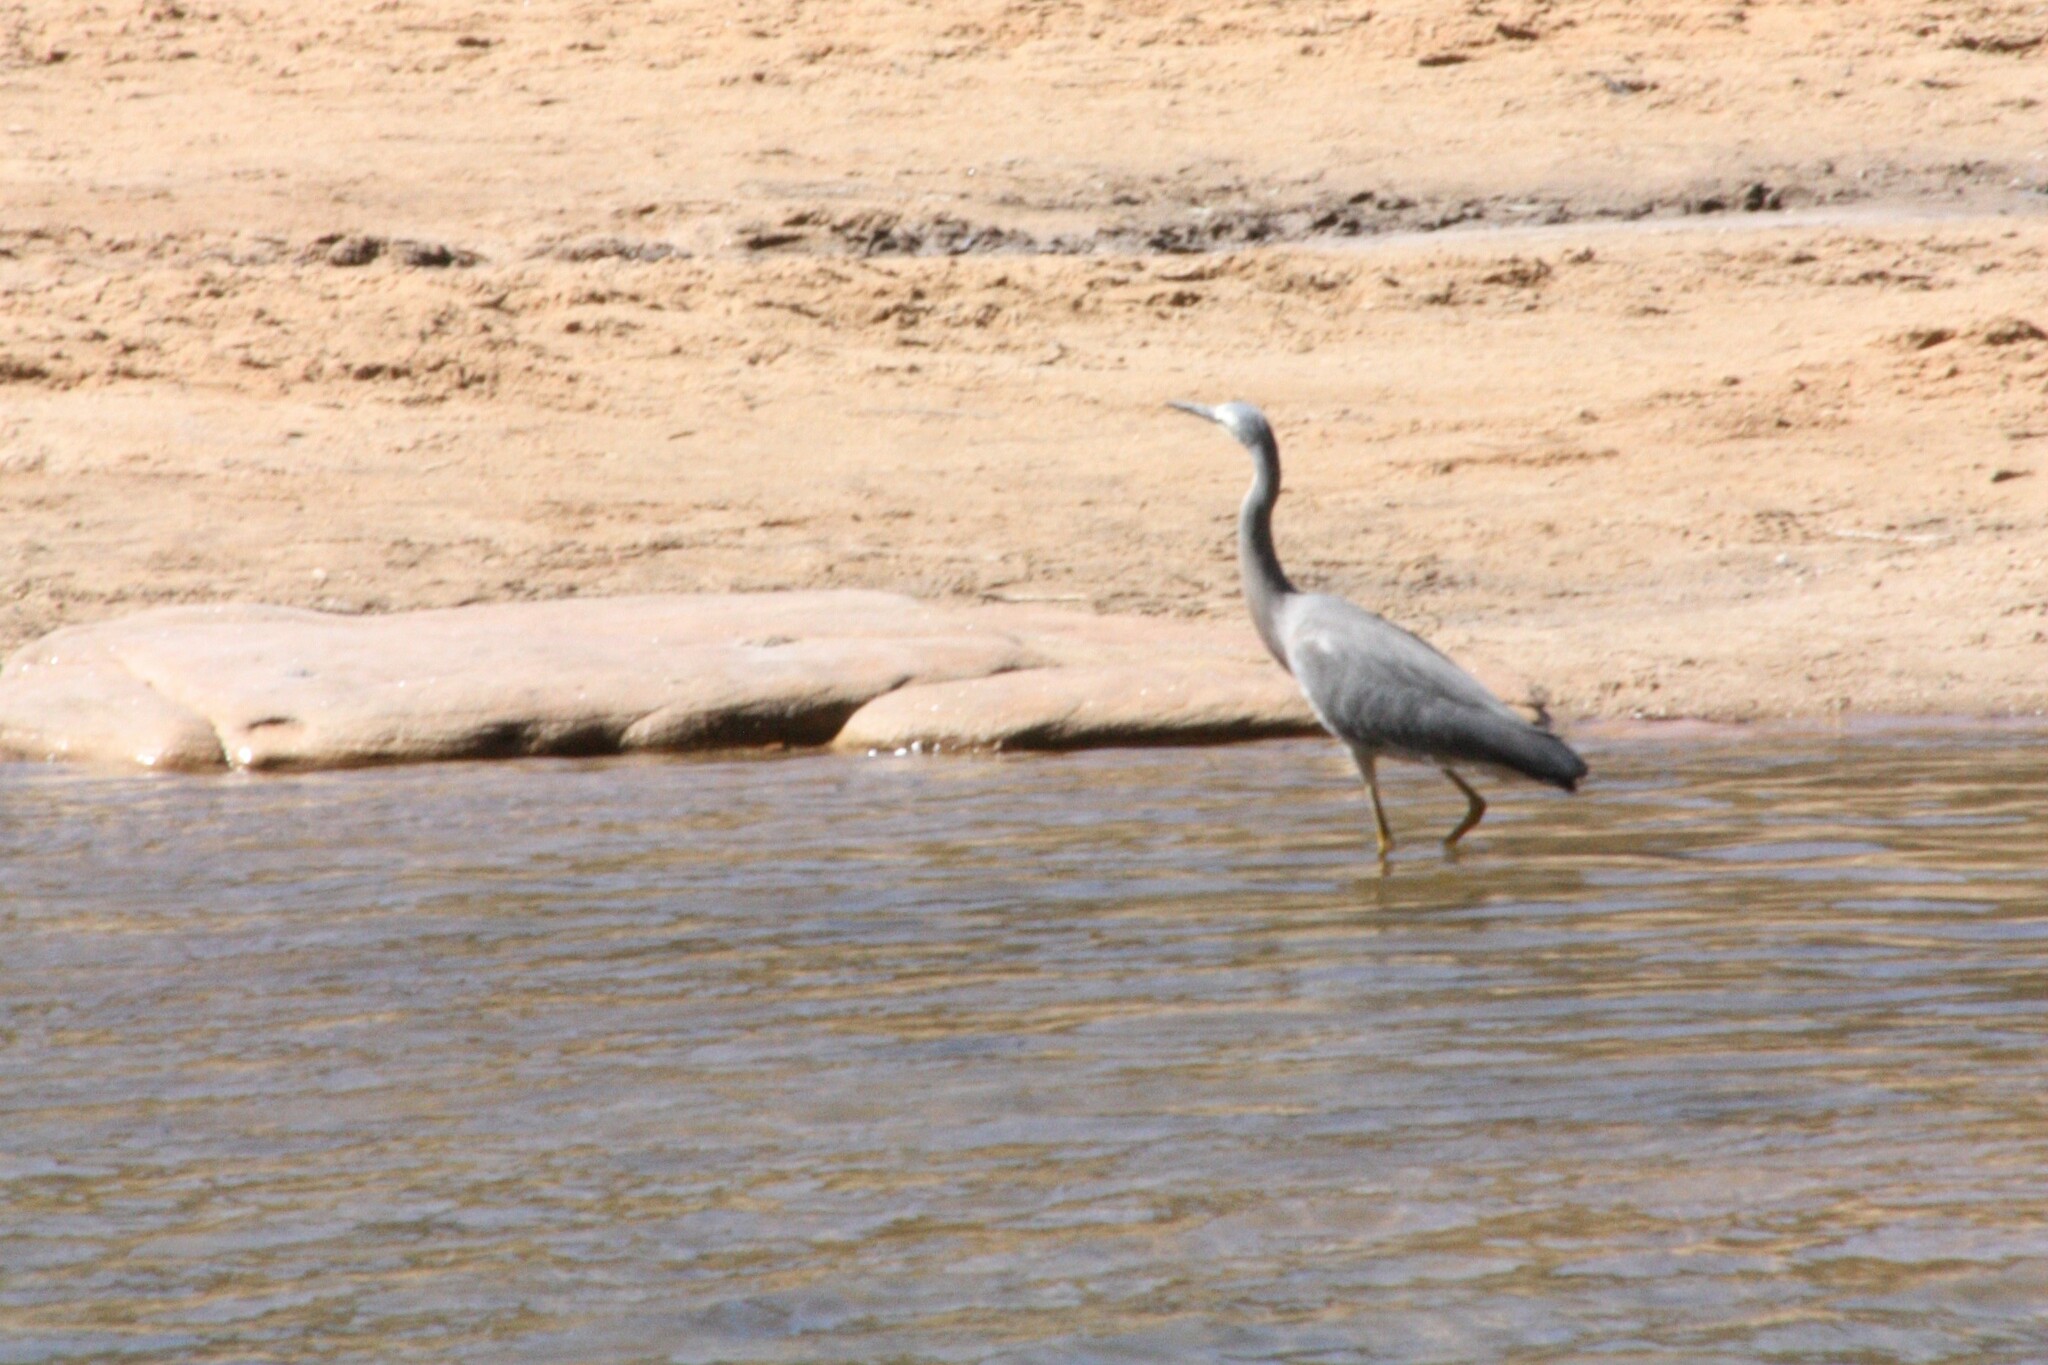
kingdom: Animalia
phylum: Chordata
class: Aves
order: Pelecaniformes
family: Ardeidae
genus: Egretta
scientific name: Egretta novaehollandiae
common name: White-faced heron
